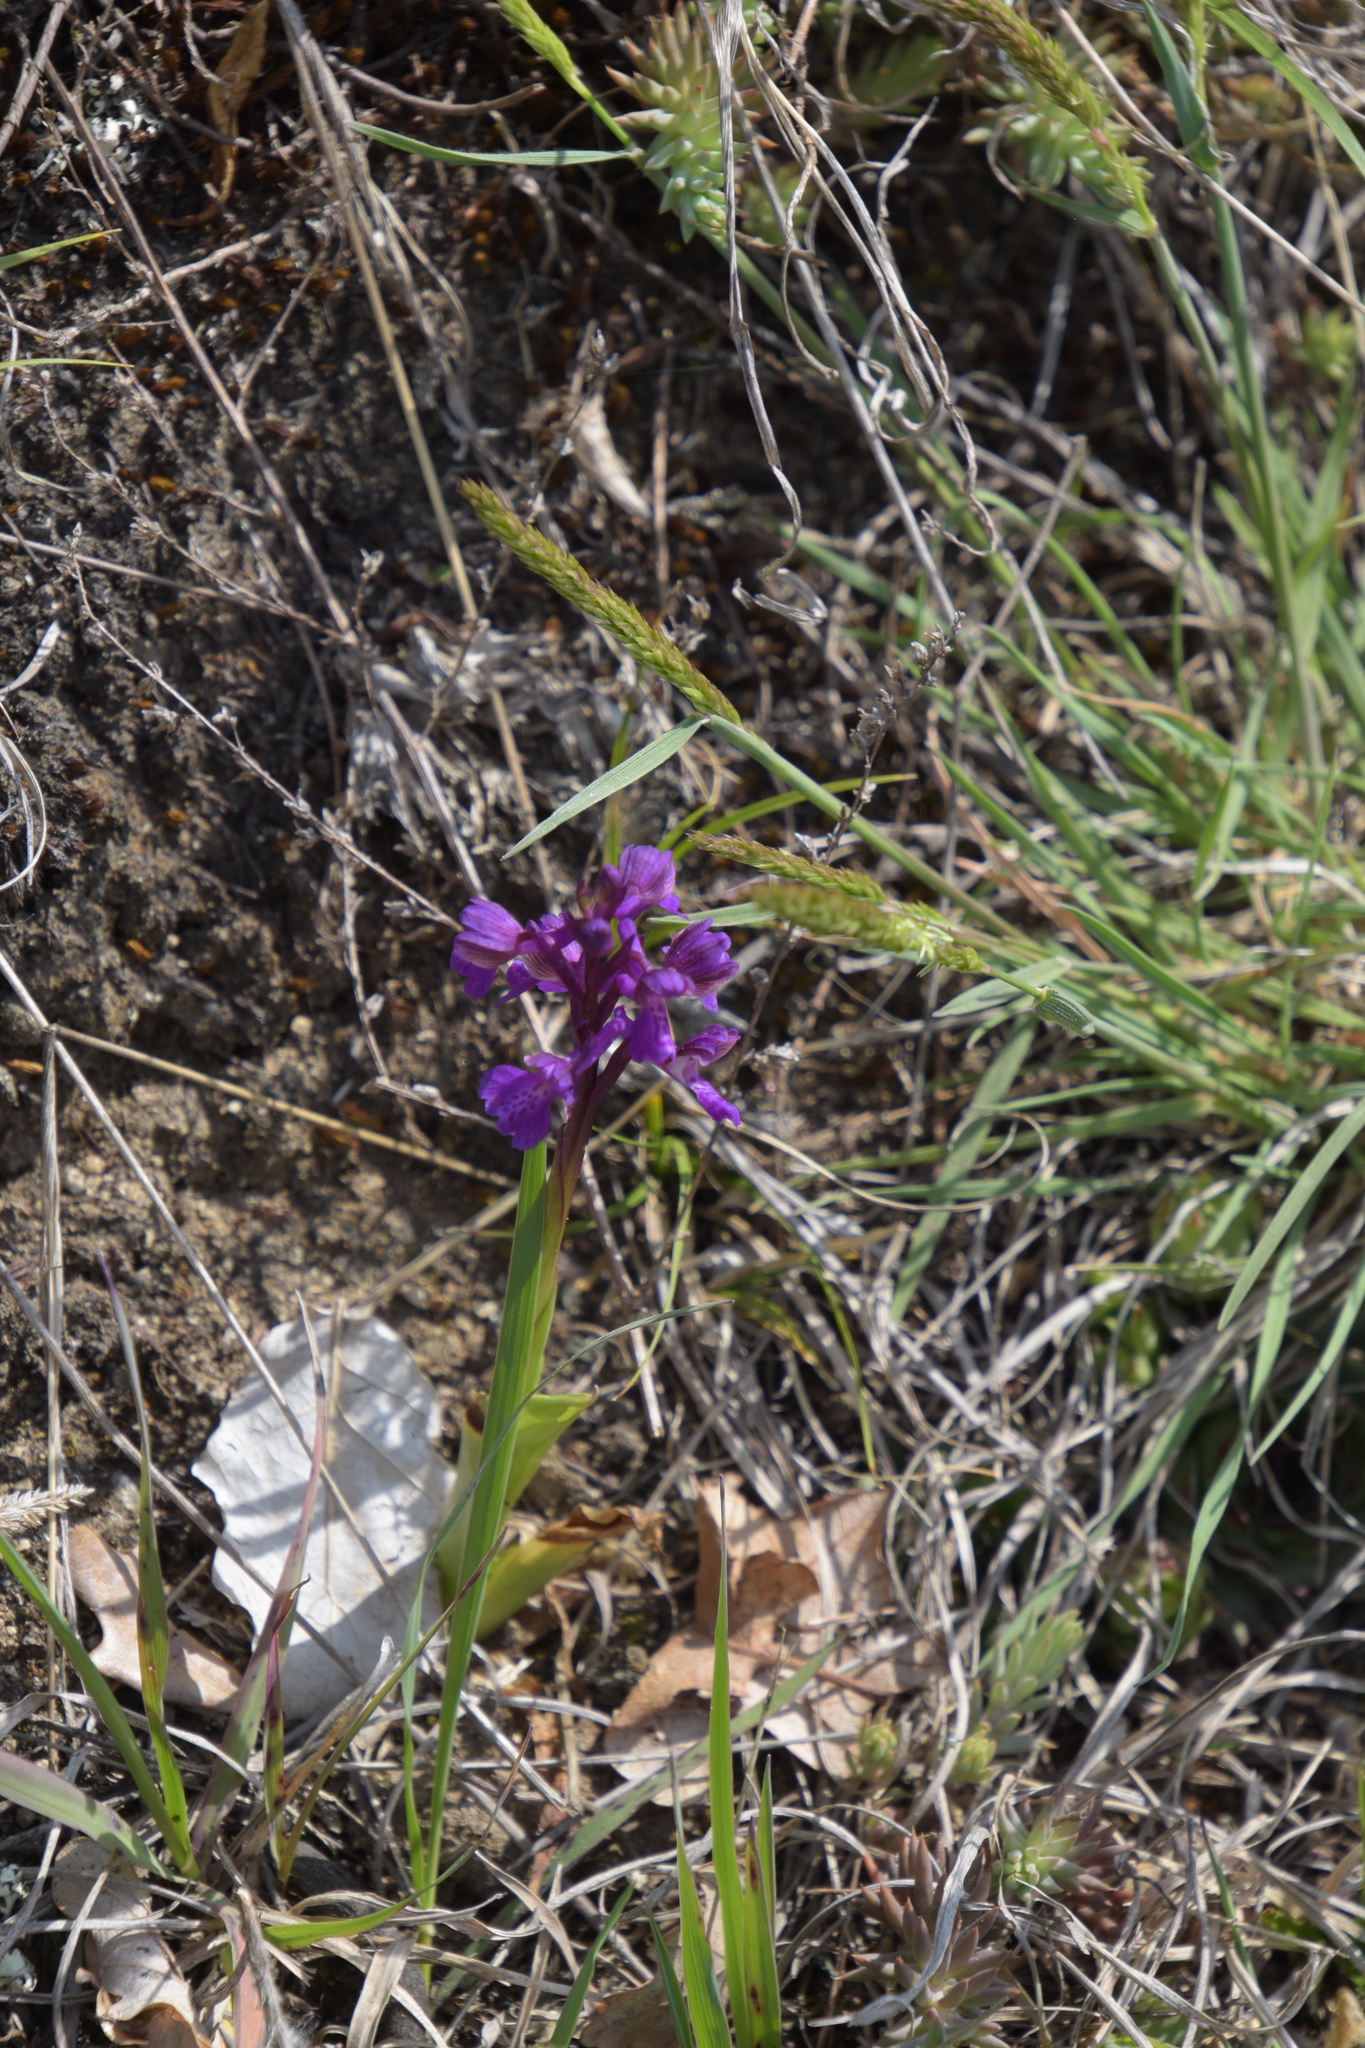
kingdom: Plantae
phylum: Tracheophyta
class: Liliopsida
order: Asparagales
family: Orchidaceae
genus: Anacamptis
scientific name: Anacamptis morio
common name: Green-winged orchid
